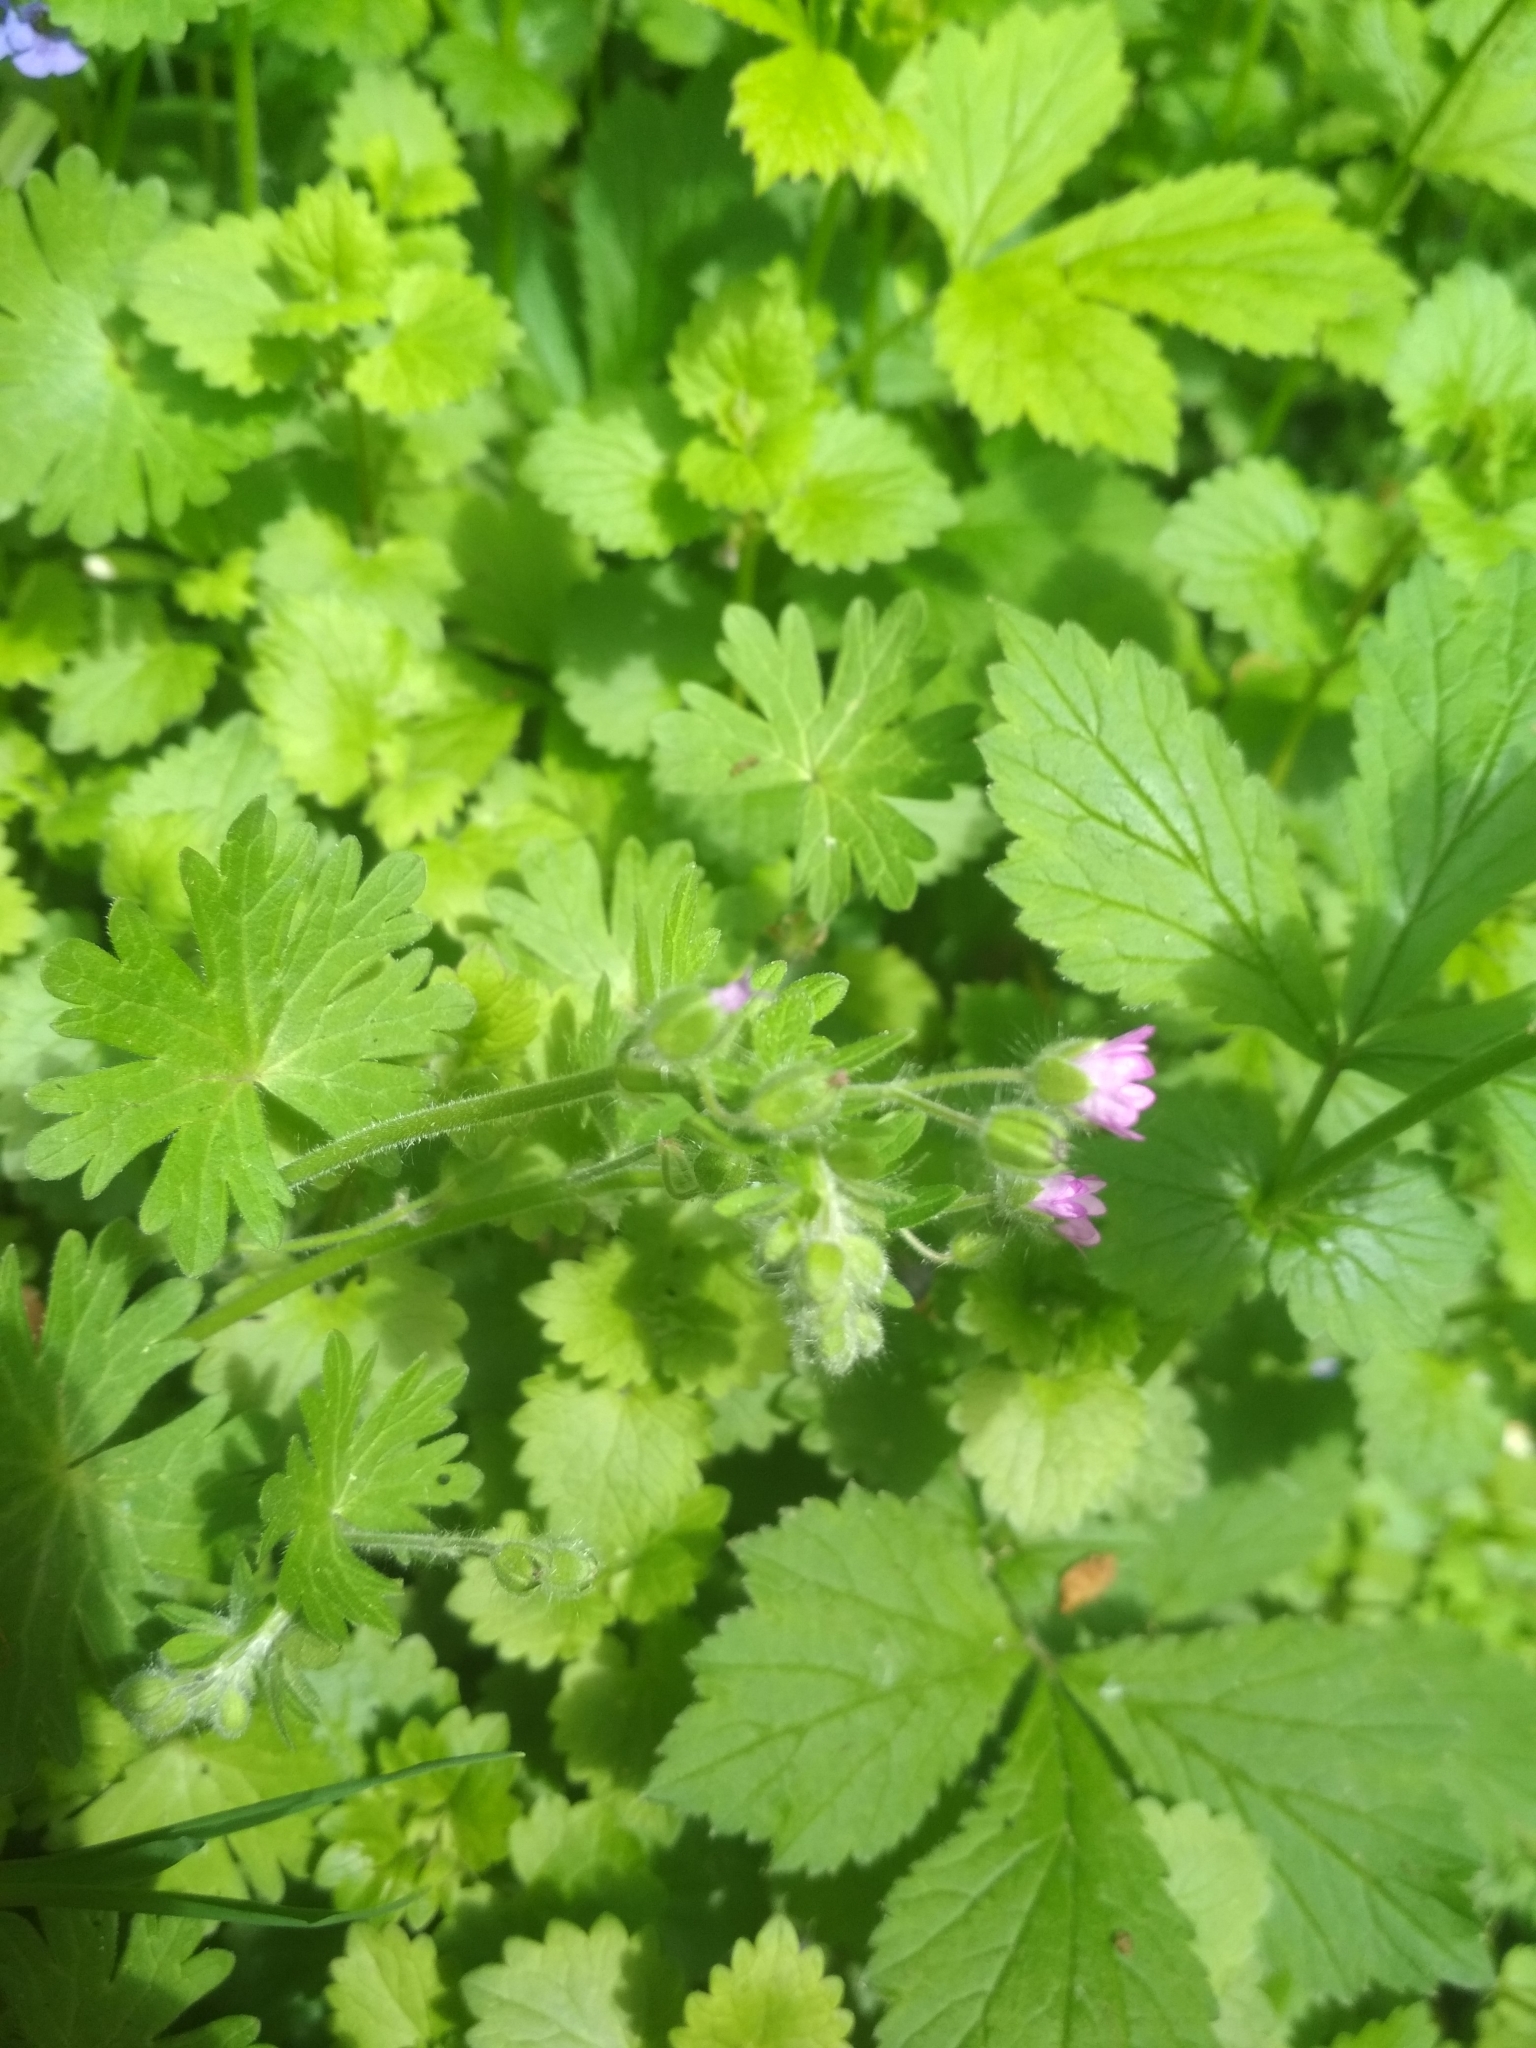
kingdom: Plantae
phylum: Tracheophyta
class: Magnoliopsida
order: Geraniales
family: Geraniaceae
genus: Geranium
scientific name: Geranium molle
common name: Dove's-foot crane's-bill
